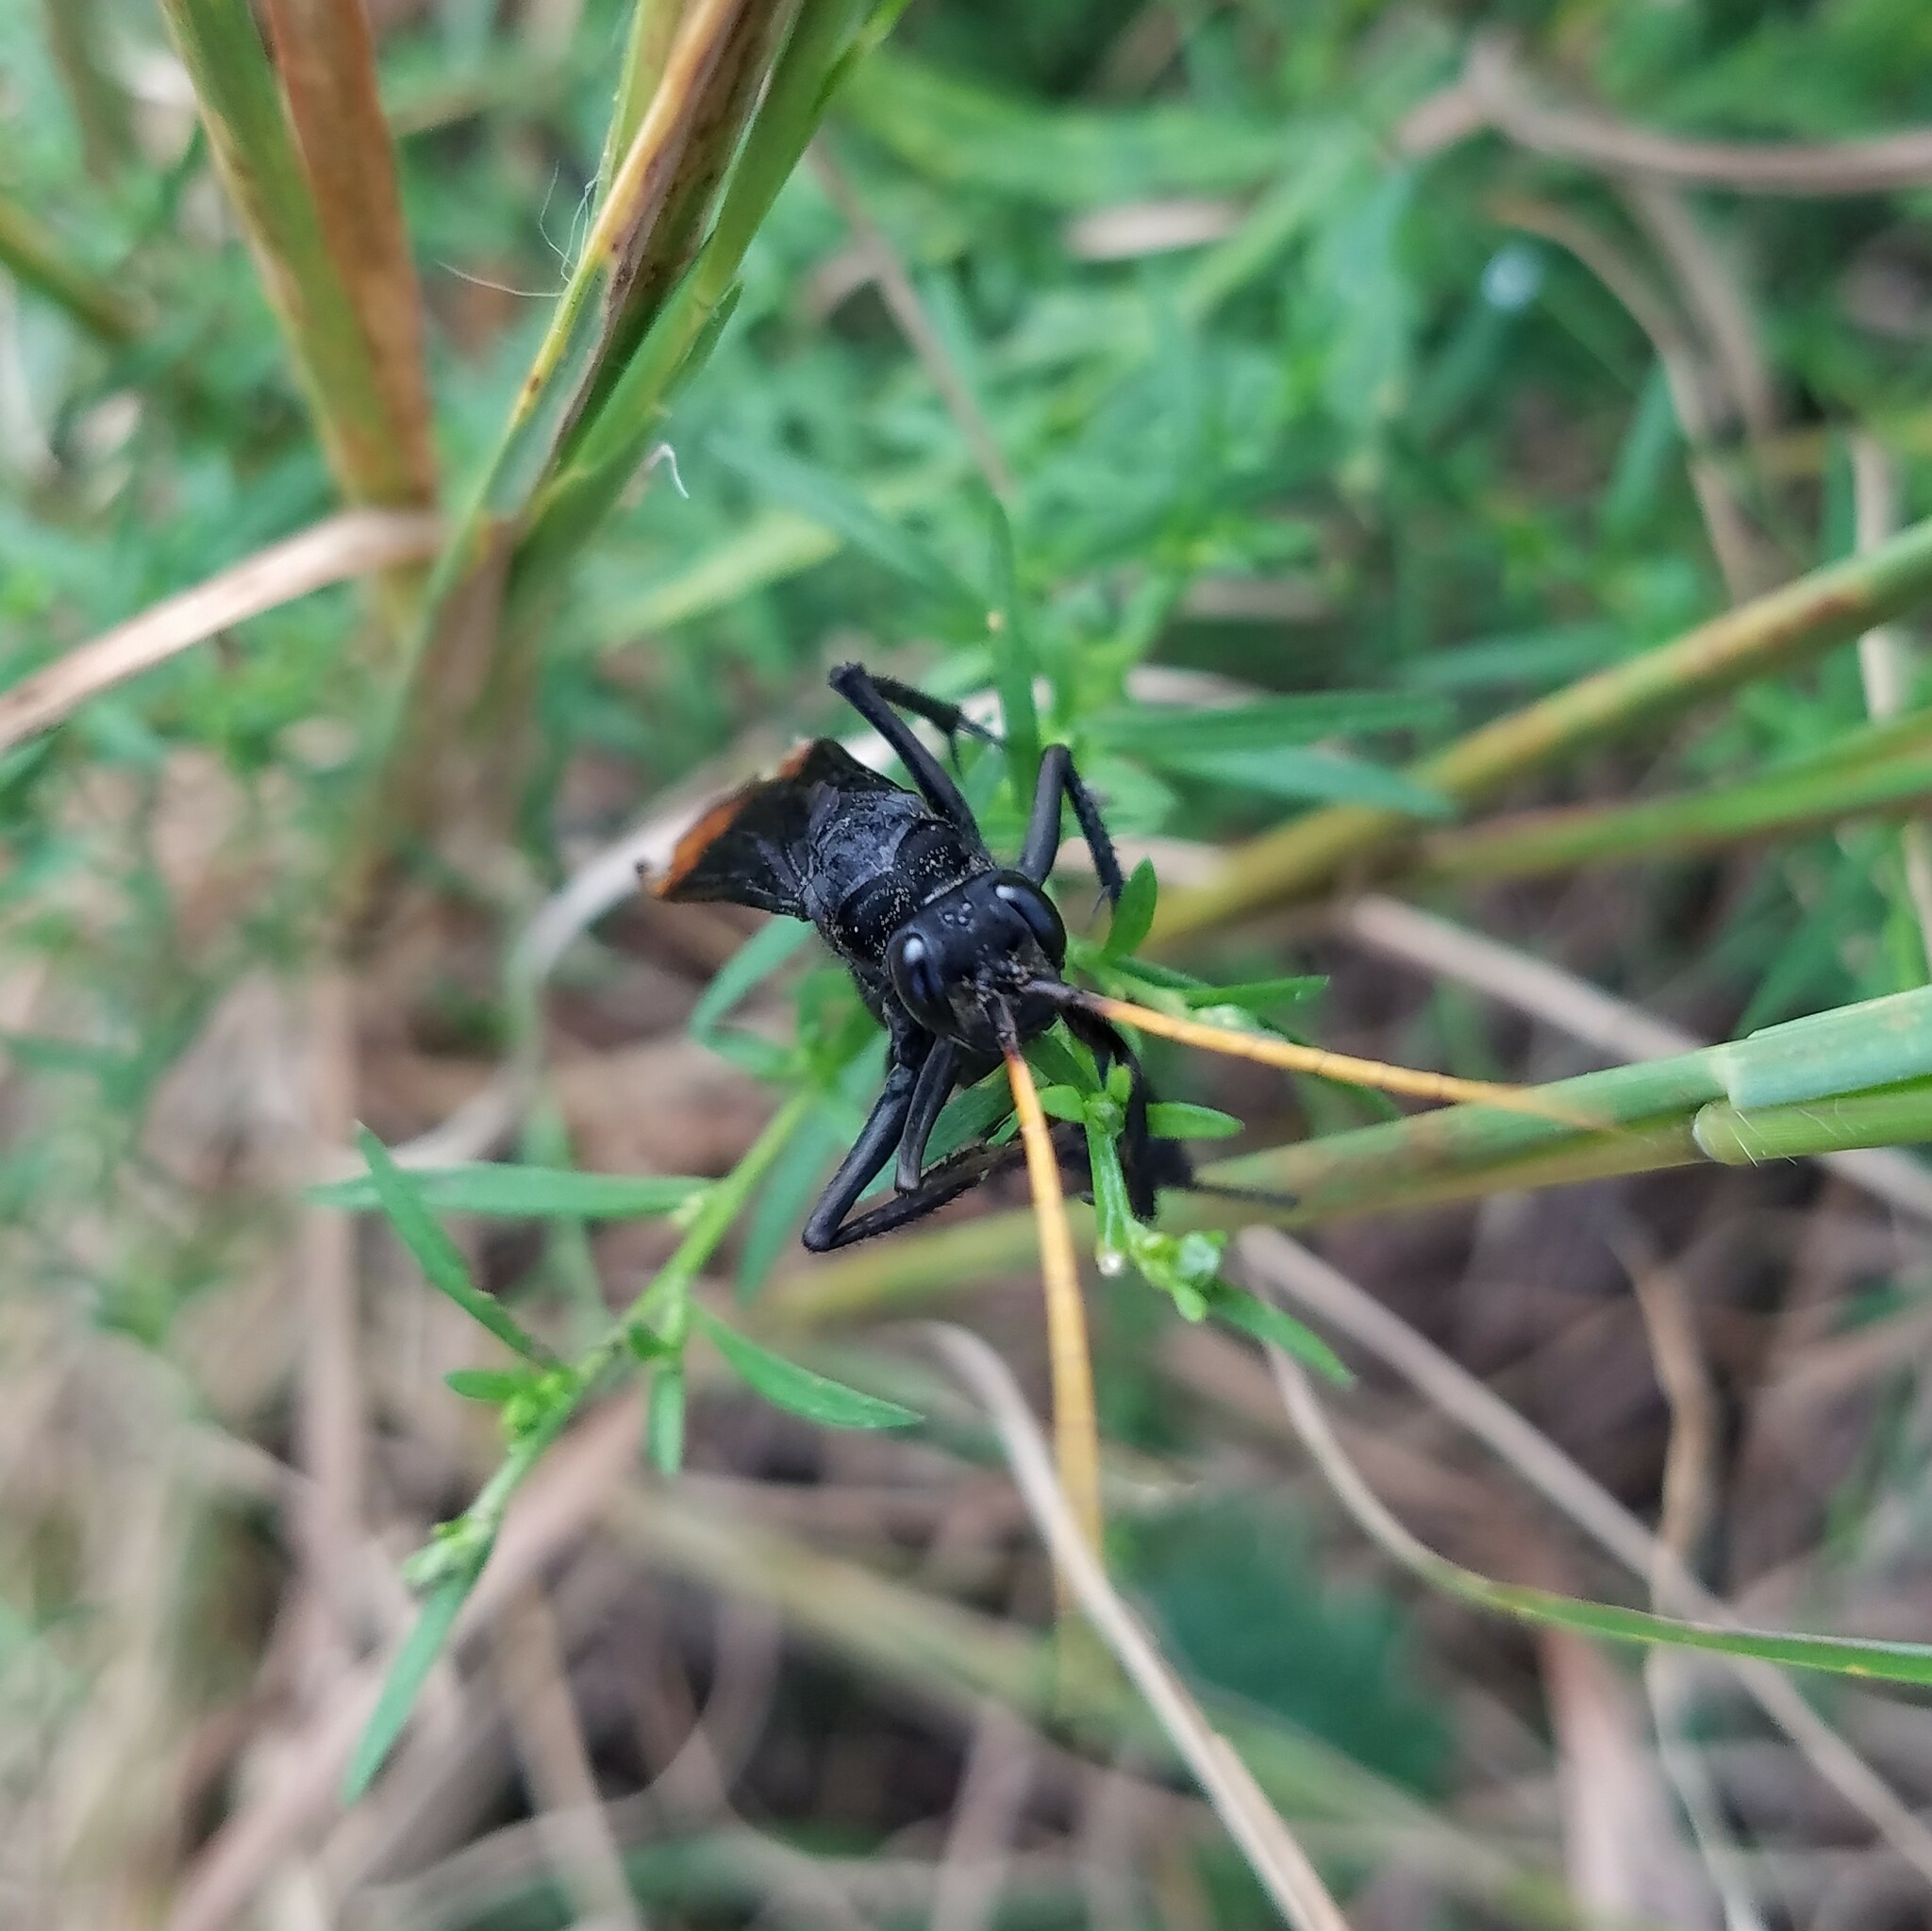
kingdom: Animalia
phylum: Arthropoda
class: Insecta
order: Hymenoptera
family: Pompilidae
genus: Entypus
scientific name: Entypus unifasciatus
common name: Eastern tawny-horned spider wasp
